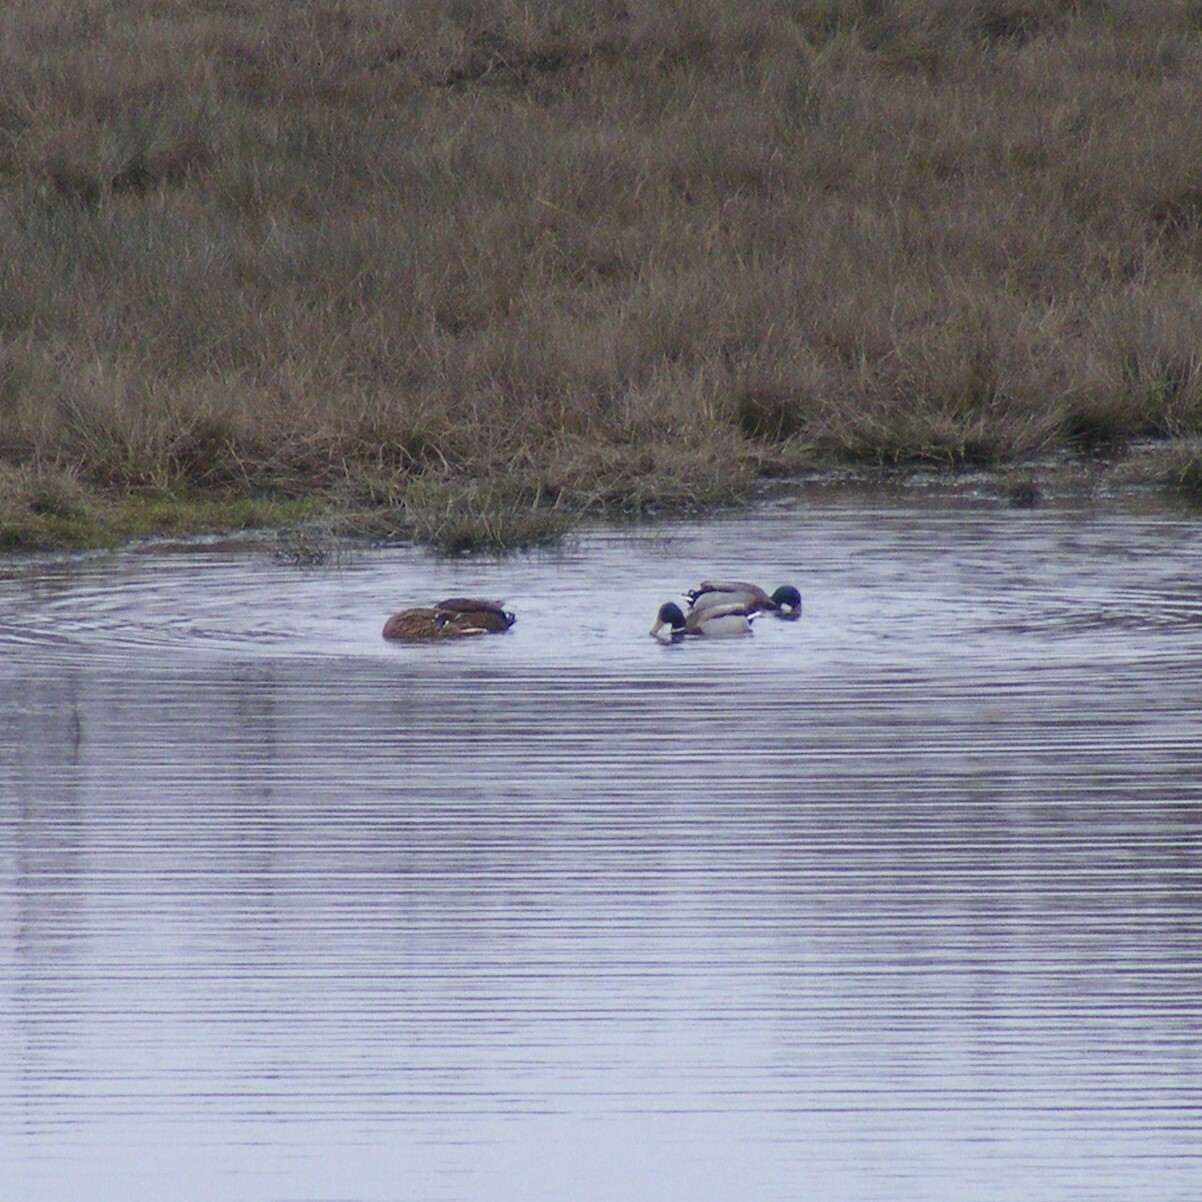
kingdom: Animalia
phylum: Chordata
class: Aves
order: Anseriformes
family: Anatidae
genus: Anas
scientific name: Anas platyrhynchos
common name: Mallard
